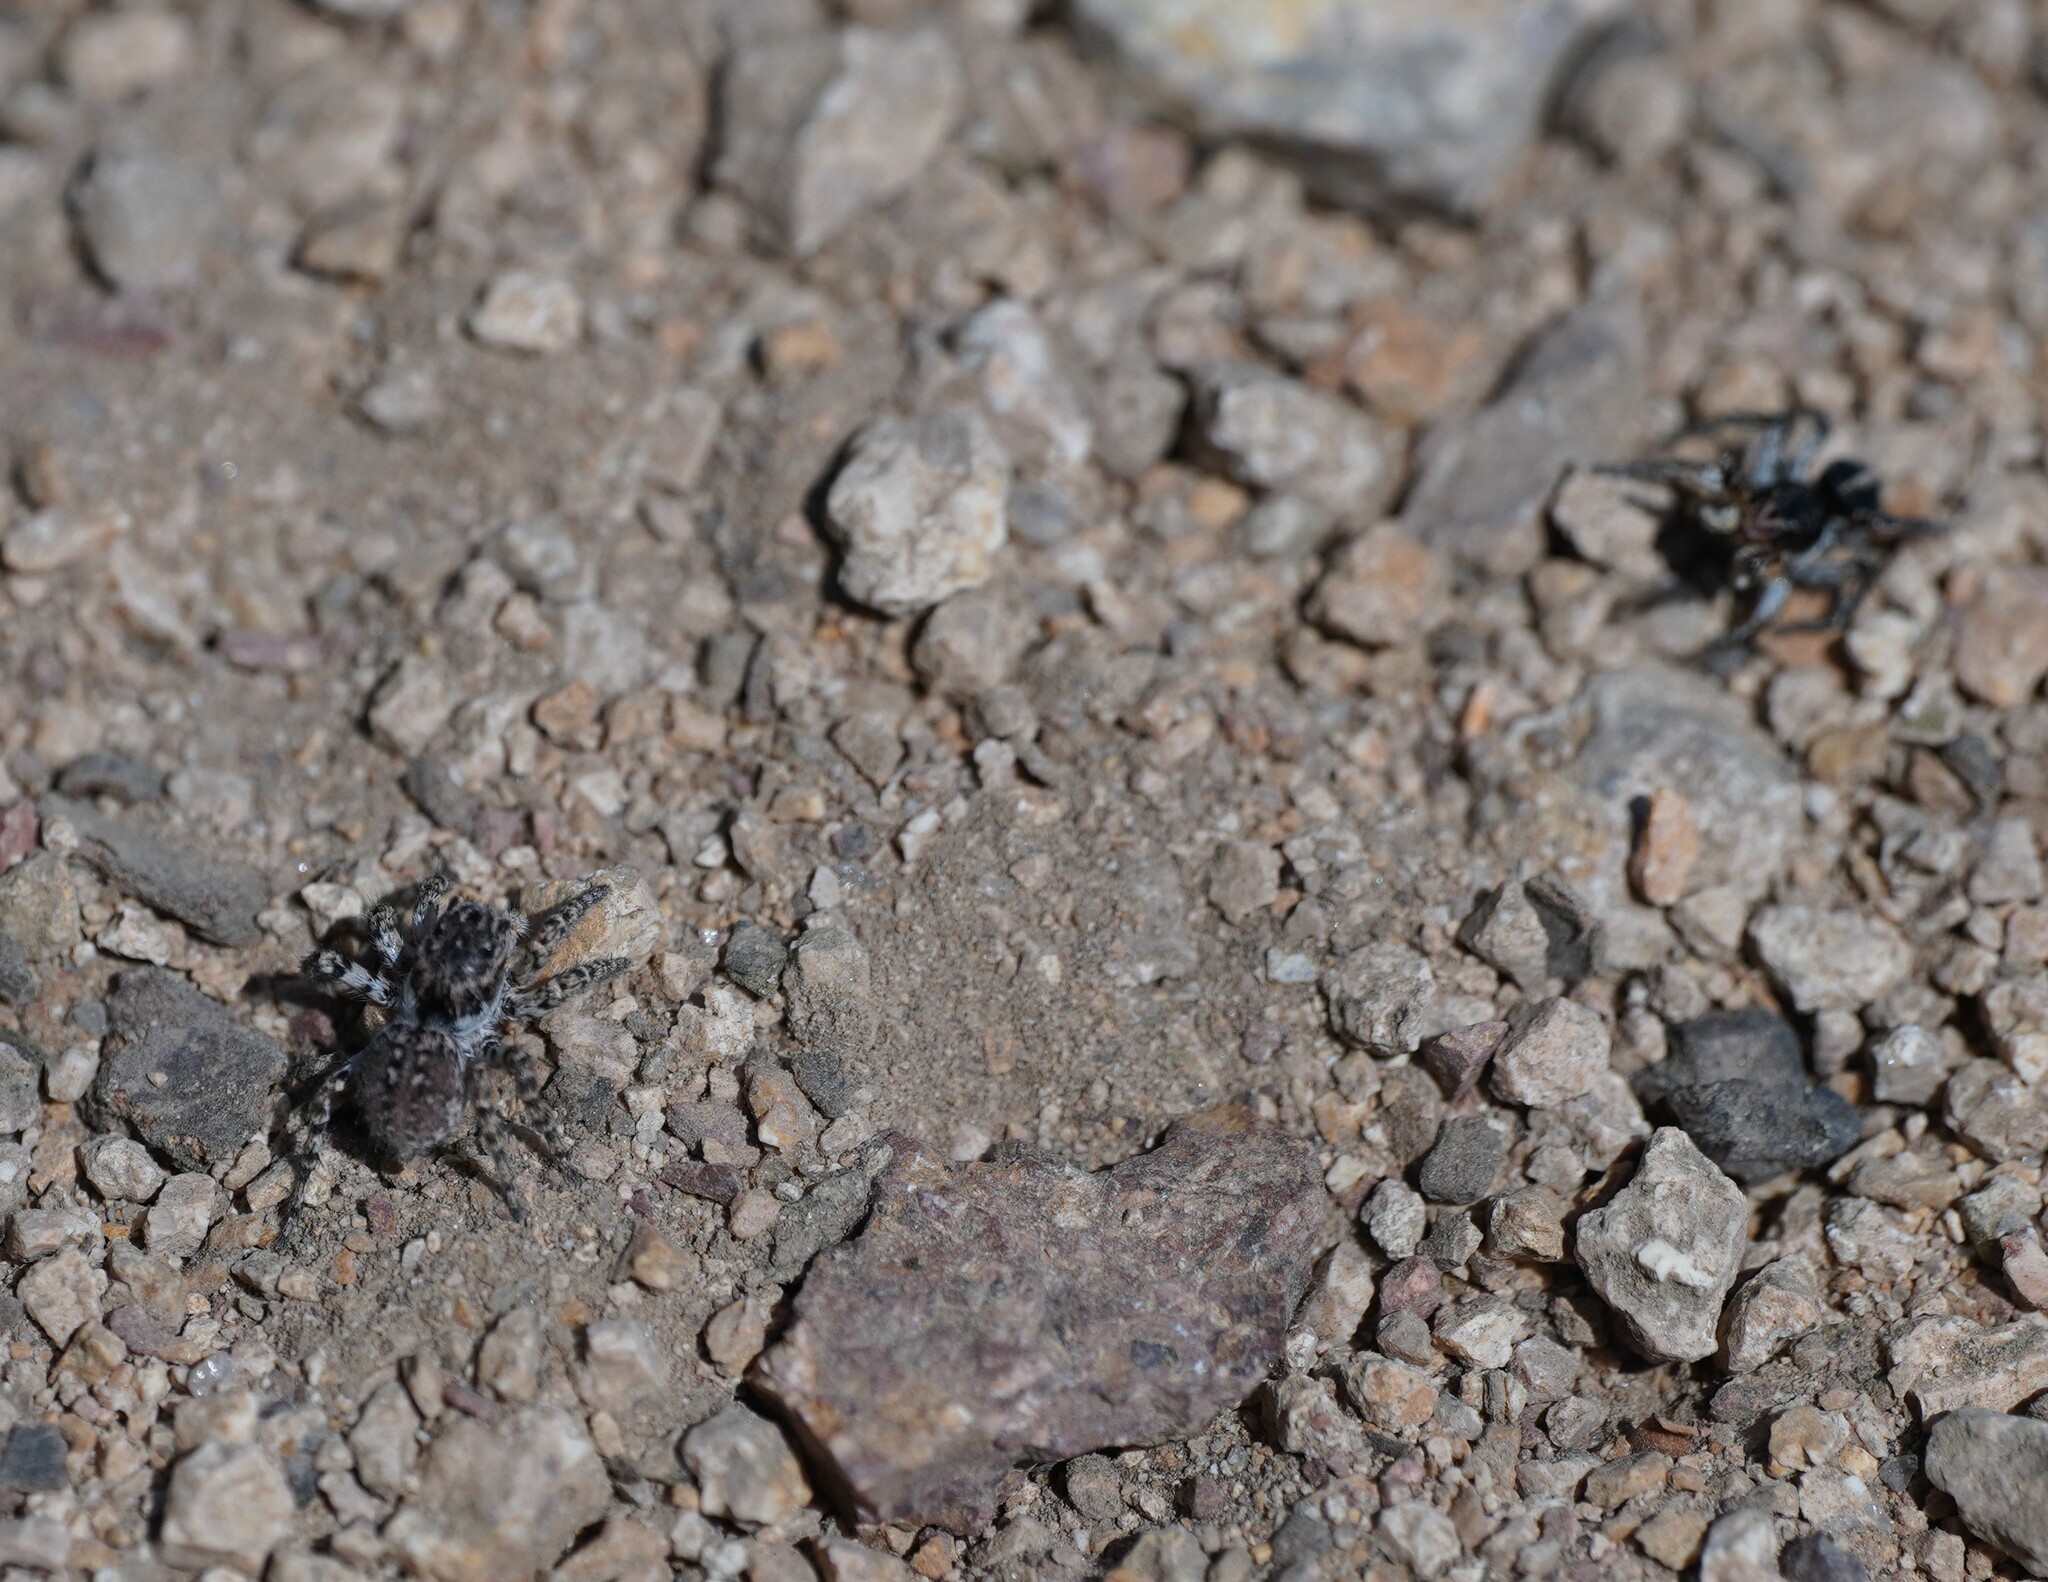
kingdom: Animalia
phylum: Arthropoda
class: Arachnida
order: Araneae
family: Salticidae
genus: Aelurillus
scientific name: Aelurillus v-insignitus
